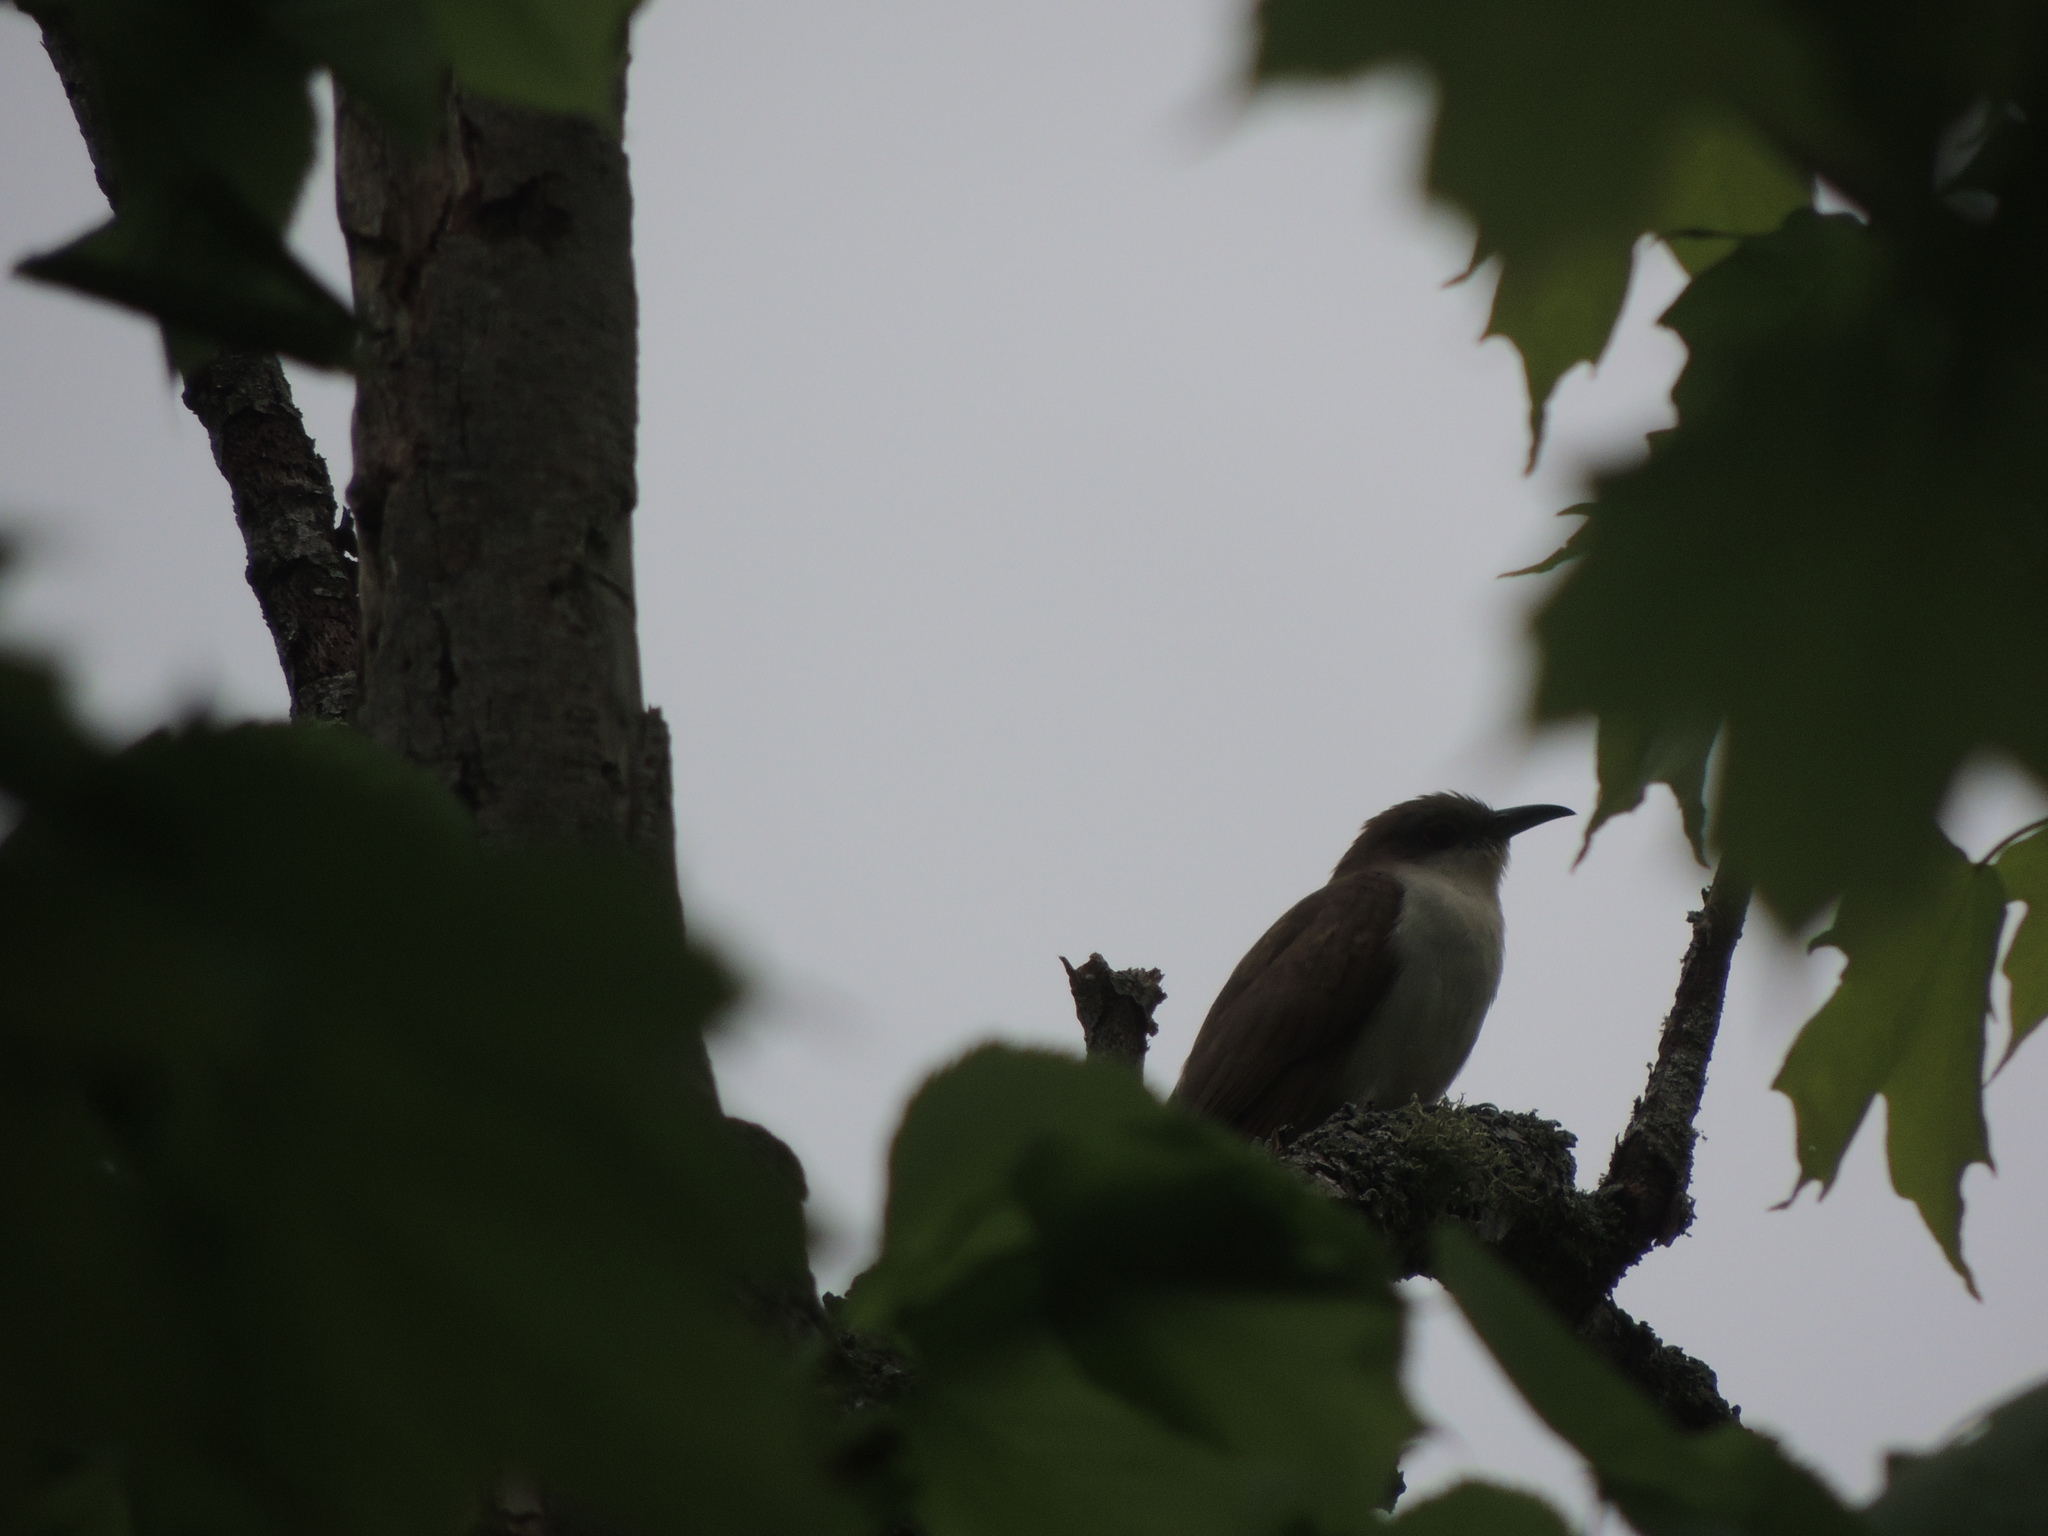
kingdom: Animalia
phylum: Chordata
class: Aves
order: Cuculiformes
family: Cuculidae
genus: Coccyzus
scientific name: Coccyzus erythropthalmus
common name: Black-billed cuckoo
